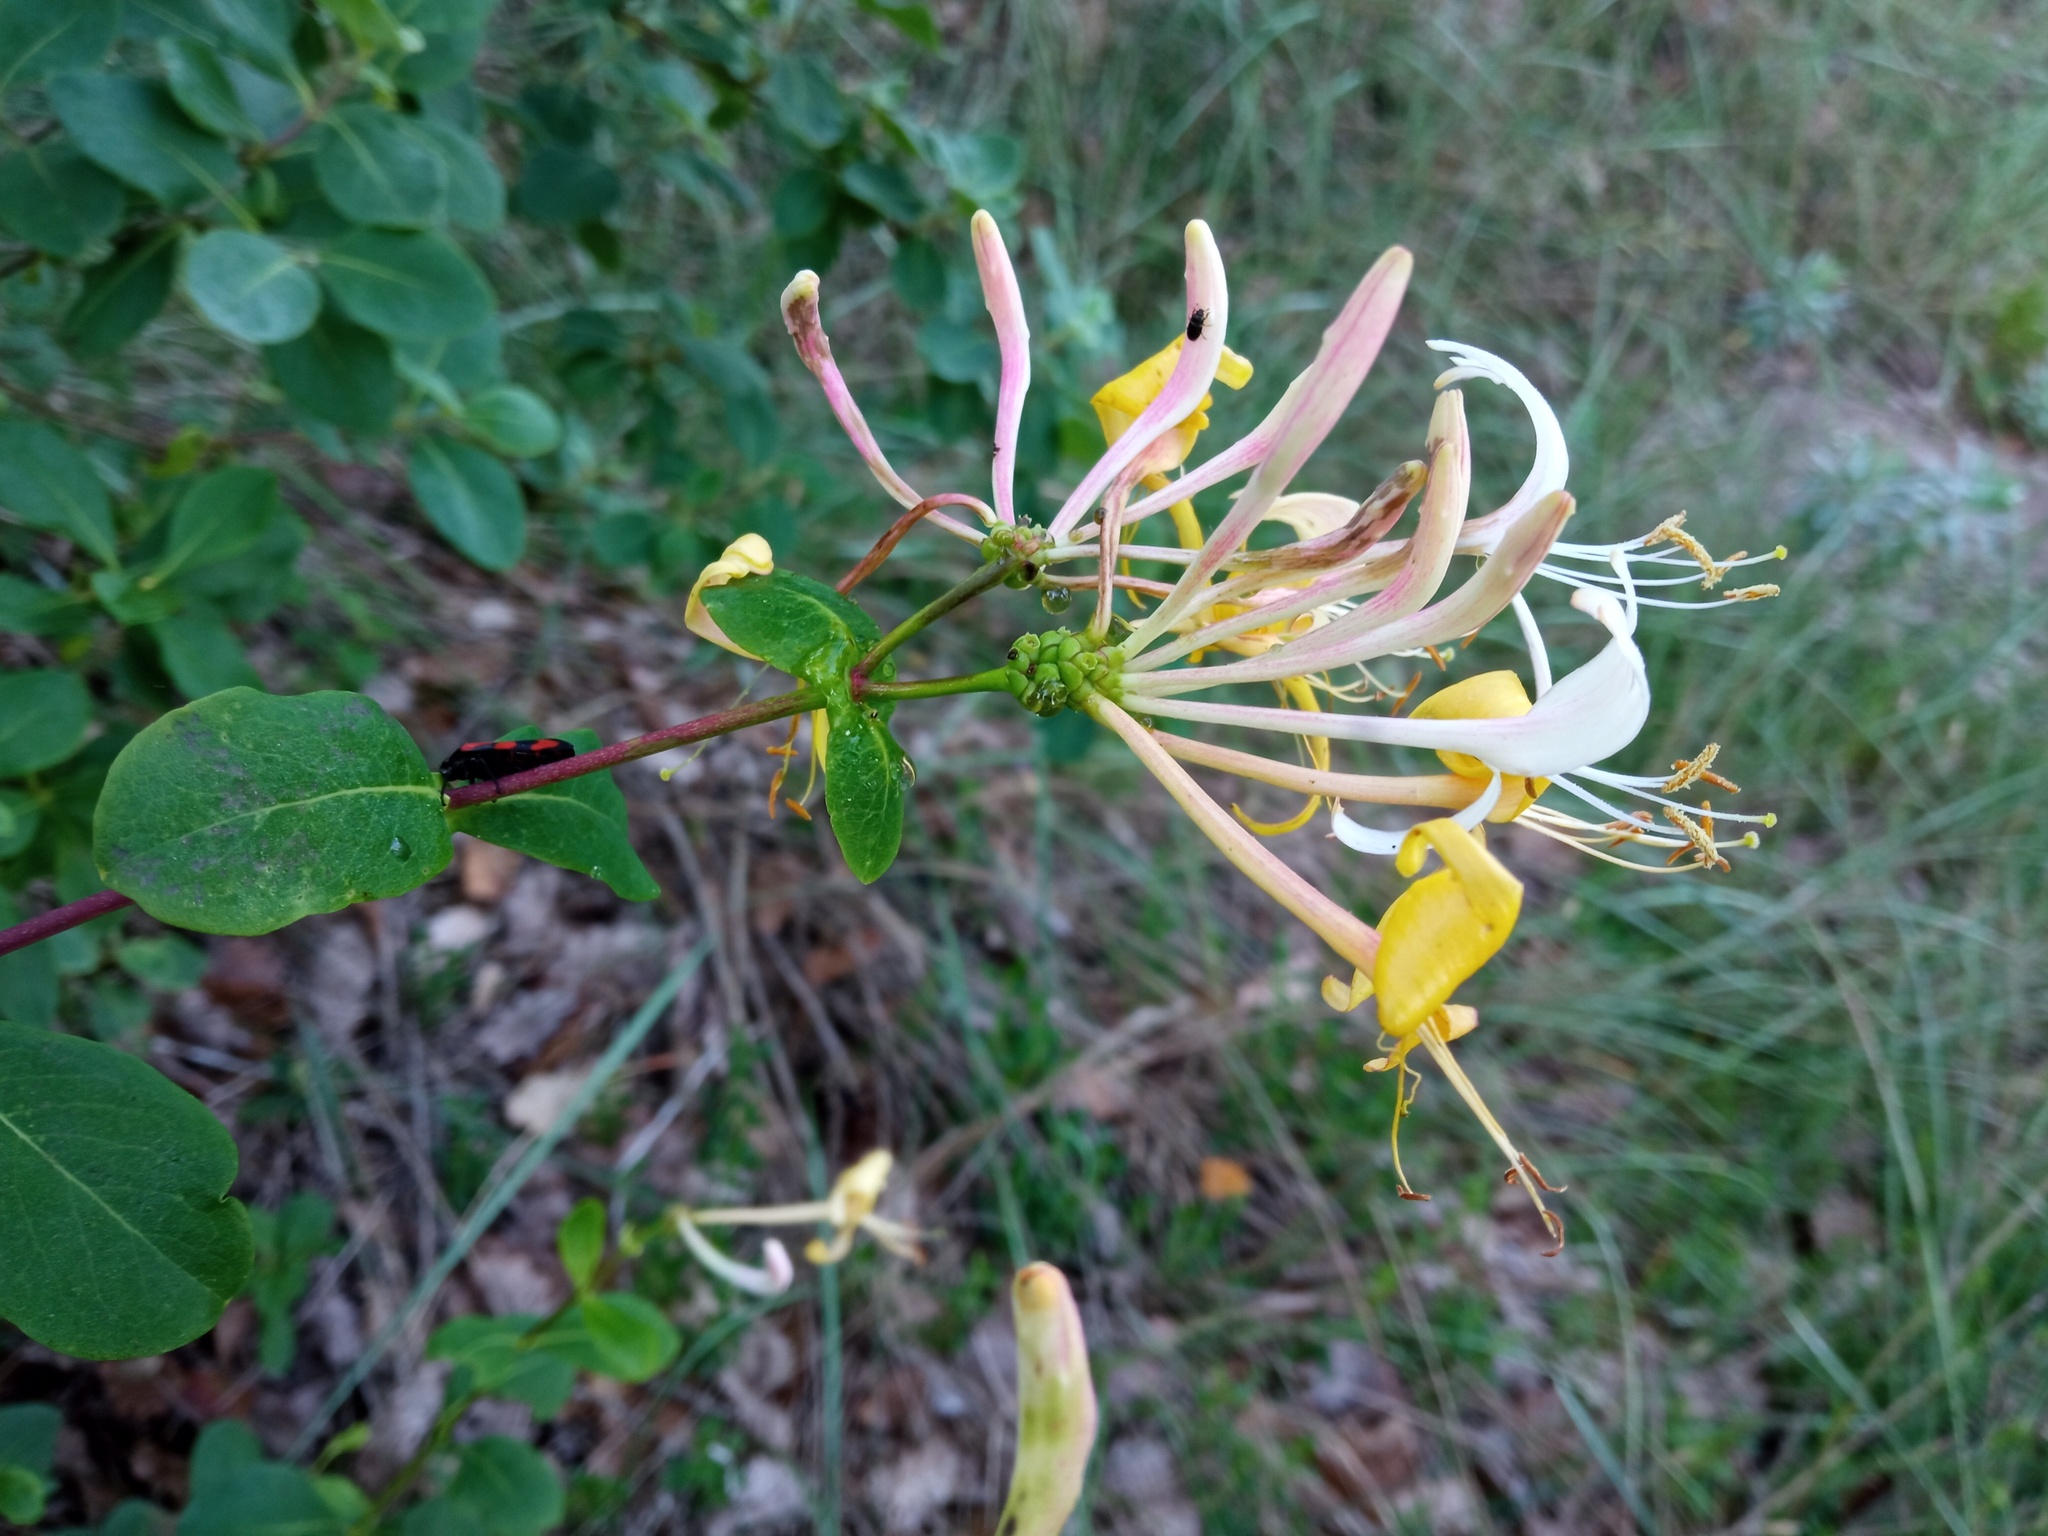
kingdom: Plantae
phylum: Tracheophyta
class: Magnoliopsida
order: Dipsacales
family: Caprifoliaceae
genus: Lonicera
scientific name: Lonicera etrusca
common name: Etruscan honeysuckle
